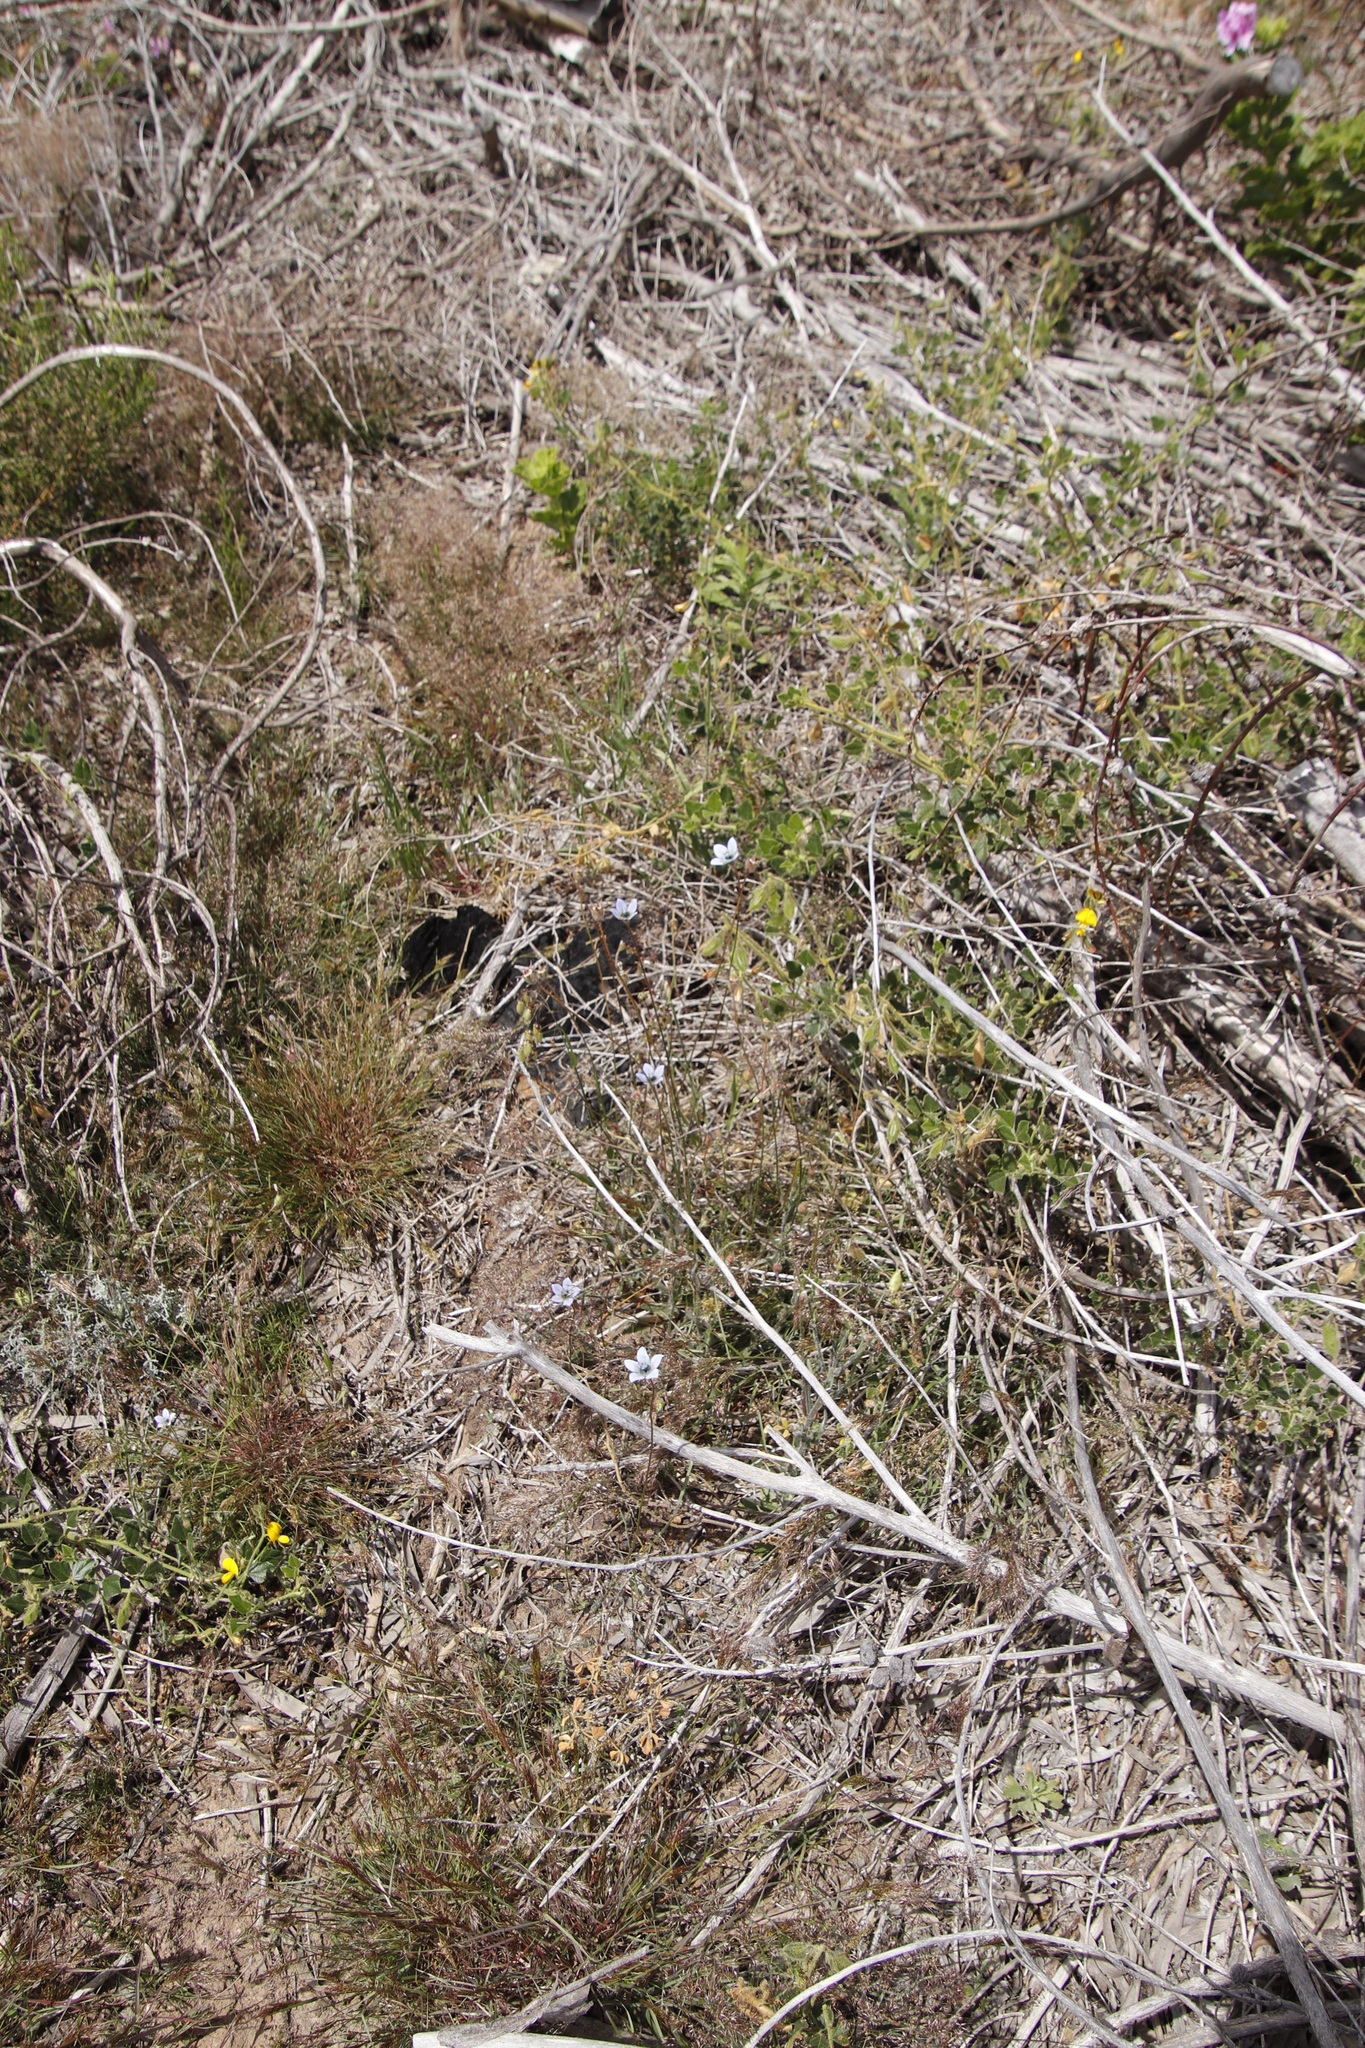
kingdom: Plantae
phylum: Tracheophyta
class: Magnoliopsida
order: Asterales
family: Campanulaceae
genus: Wahlenbergia
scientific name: Wahlenbergia capensis
